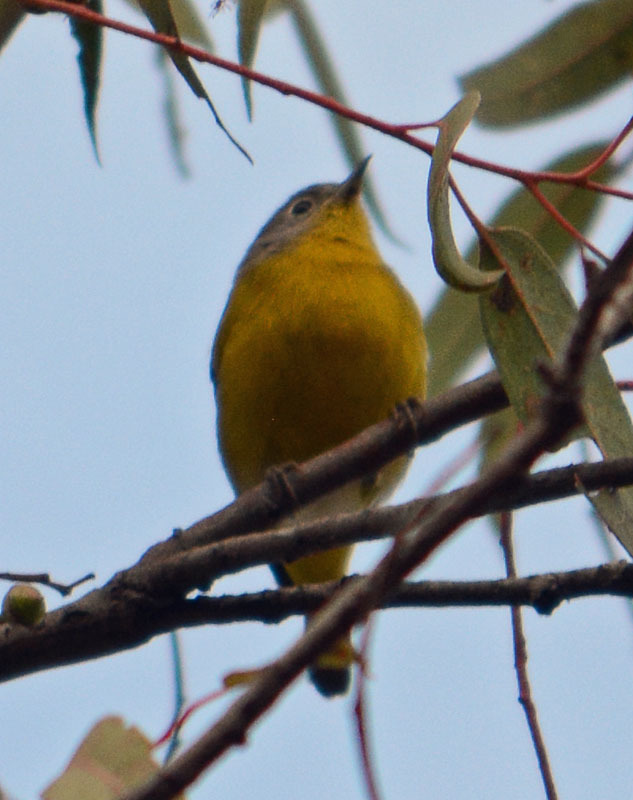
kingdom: Animalia
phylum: Chordata
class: Aves
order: Passeriformes
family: Parulidae
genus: Leiothlypis
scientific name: Leiothlypis ruficapilla
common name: Nashville warbler
